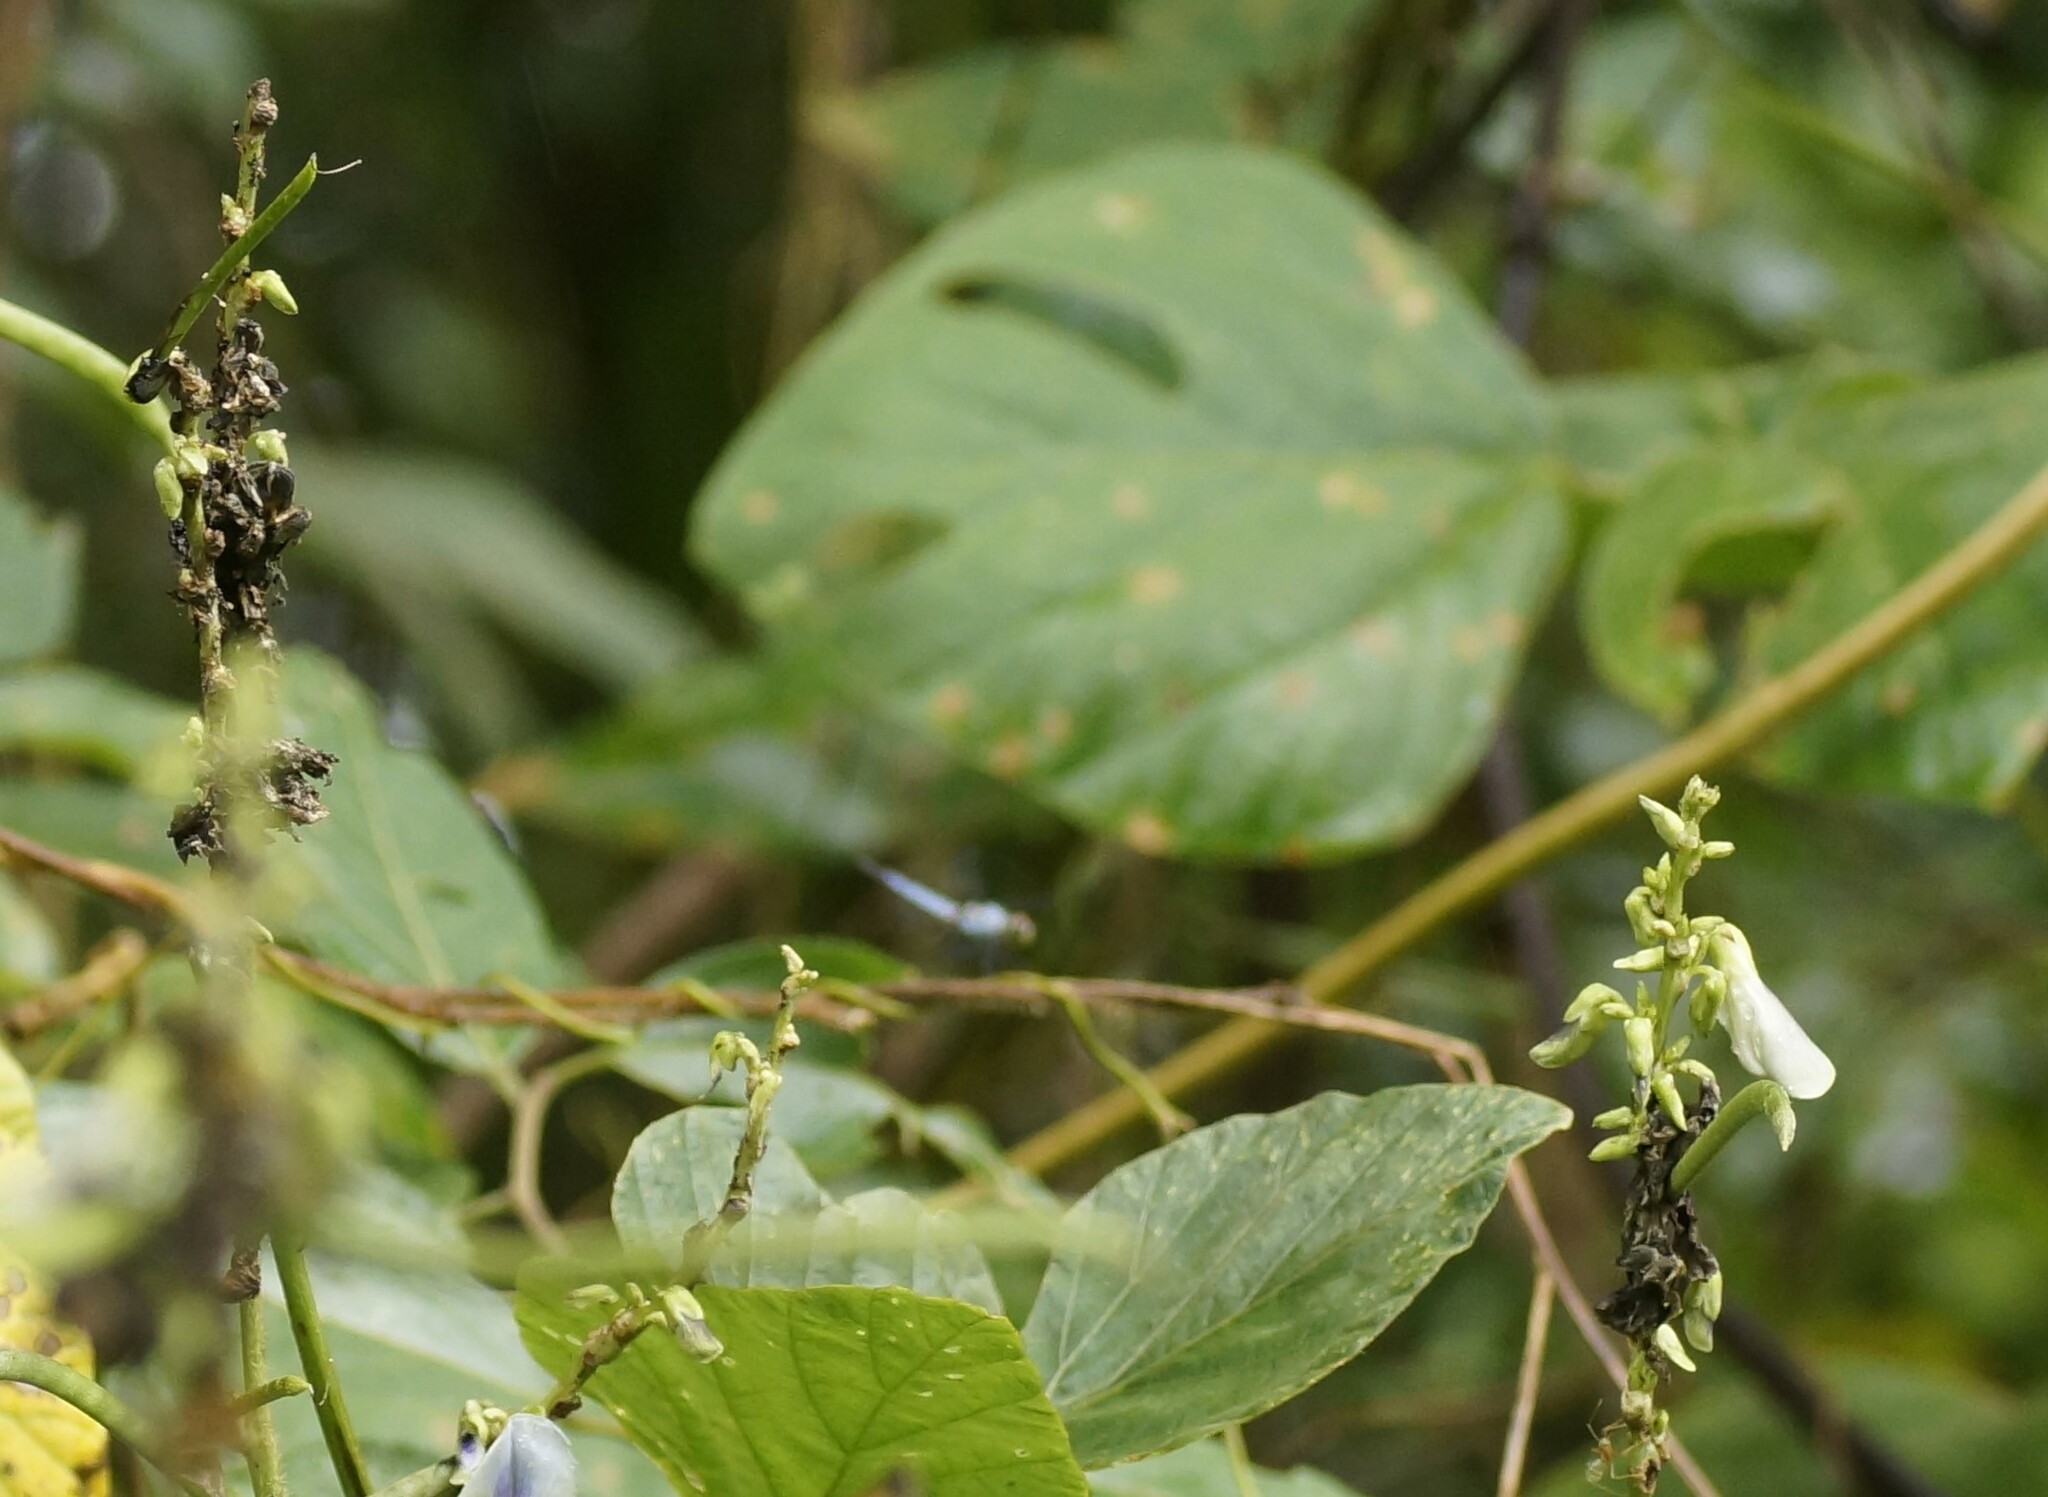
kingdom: Animalia
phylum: Arthropoda
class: Insecta
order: Odonata
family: Libellulidae
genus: Brachydiplax
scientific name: Brachydiplax denticauda
